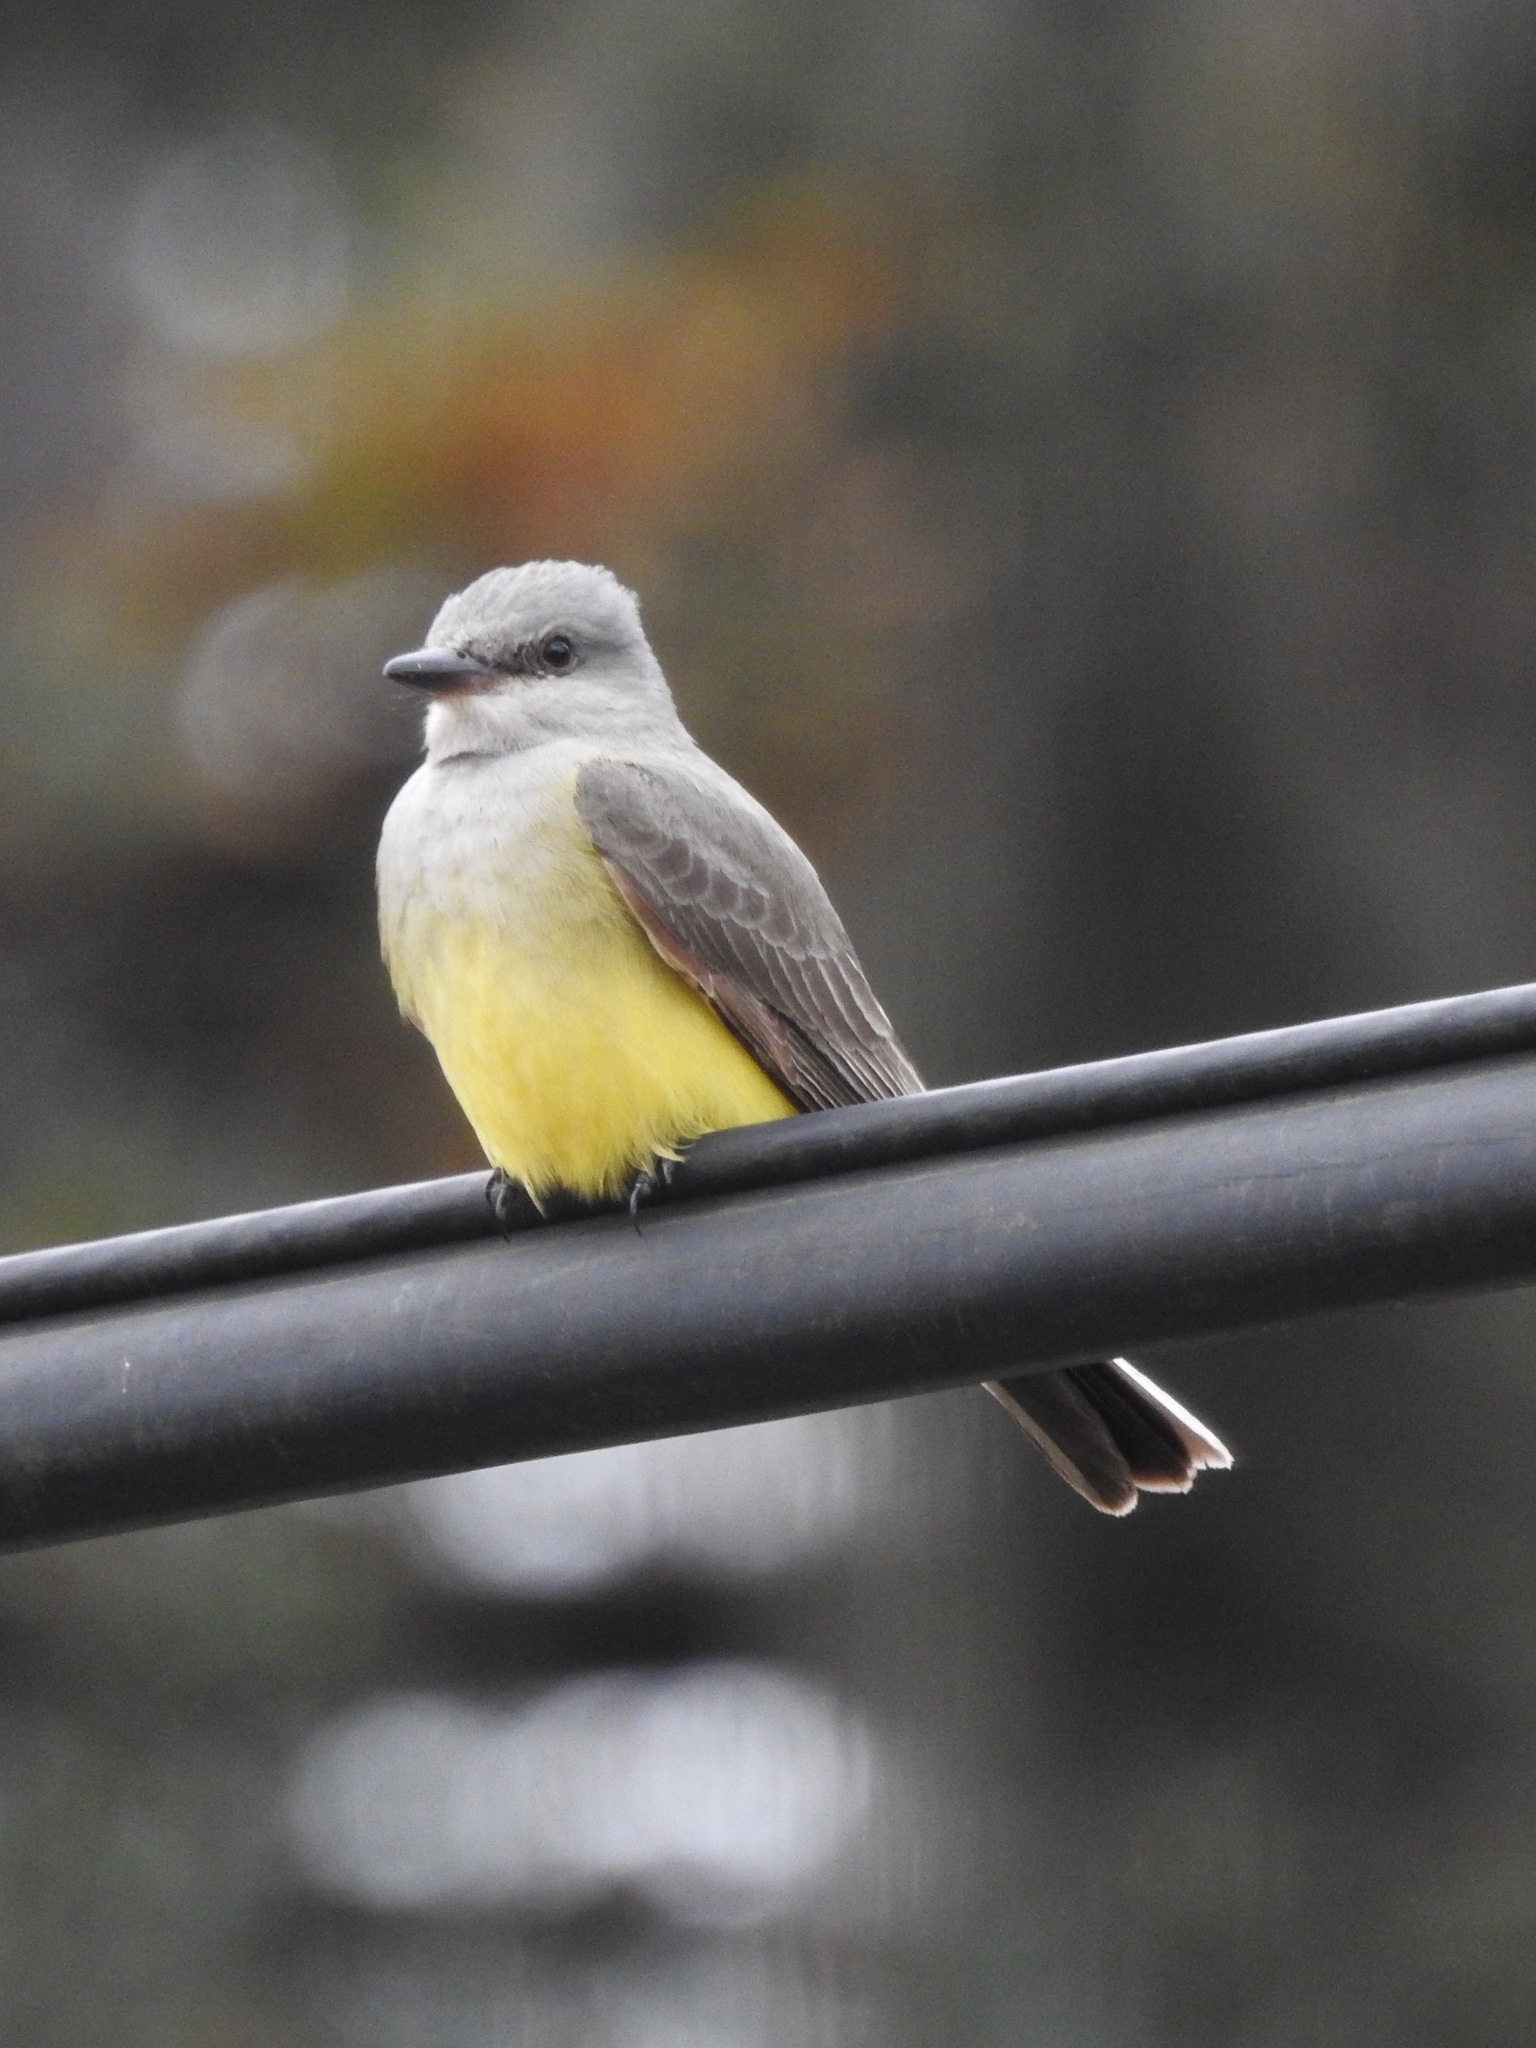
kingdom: Animalia
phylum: Chordata
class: Aves
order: Passeriformes
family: Tyrannidae
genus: Tyrannus
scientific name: Tyrannus verticalis
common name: Western kingbird
